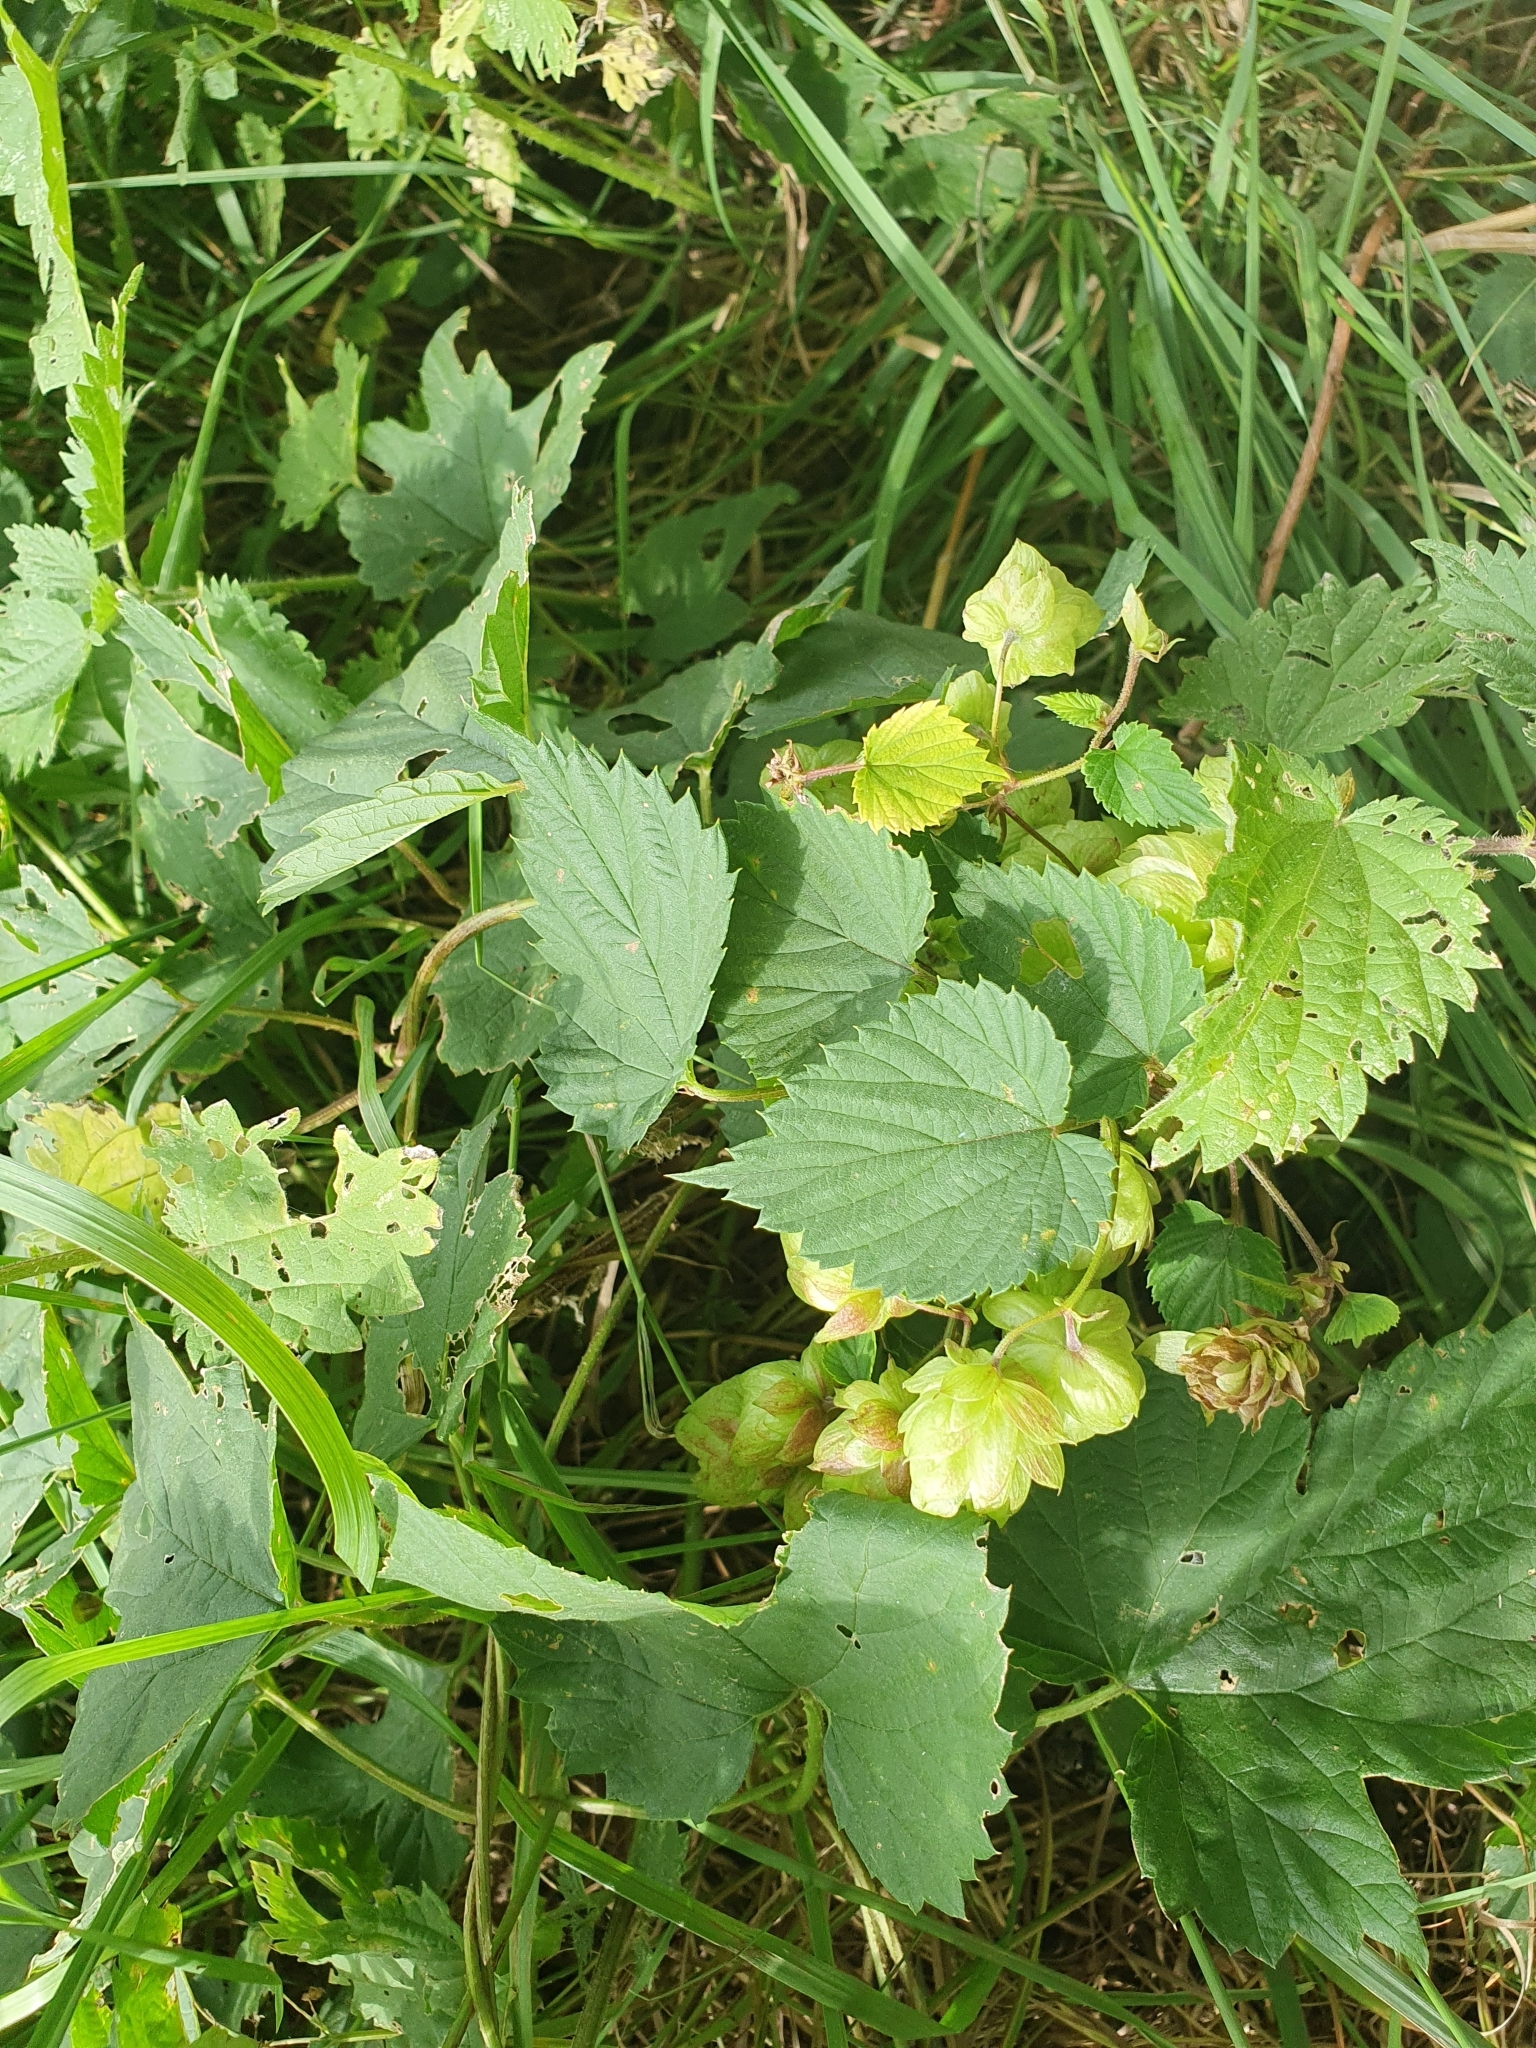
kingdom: Plantae
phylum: Tracheophyta
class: Magnoliopsida
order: Rosales
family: Cannabaceae
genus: Humulus
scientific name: Humulus lupulus
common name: Hop
